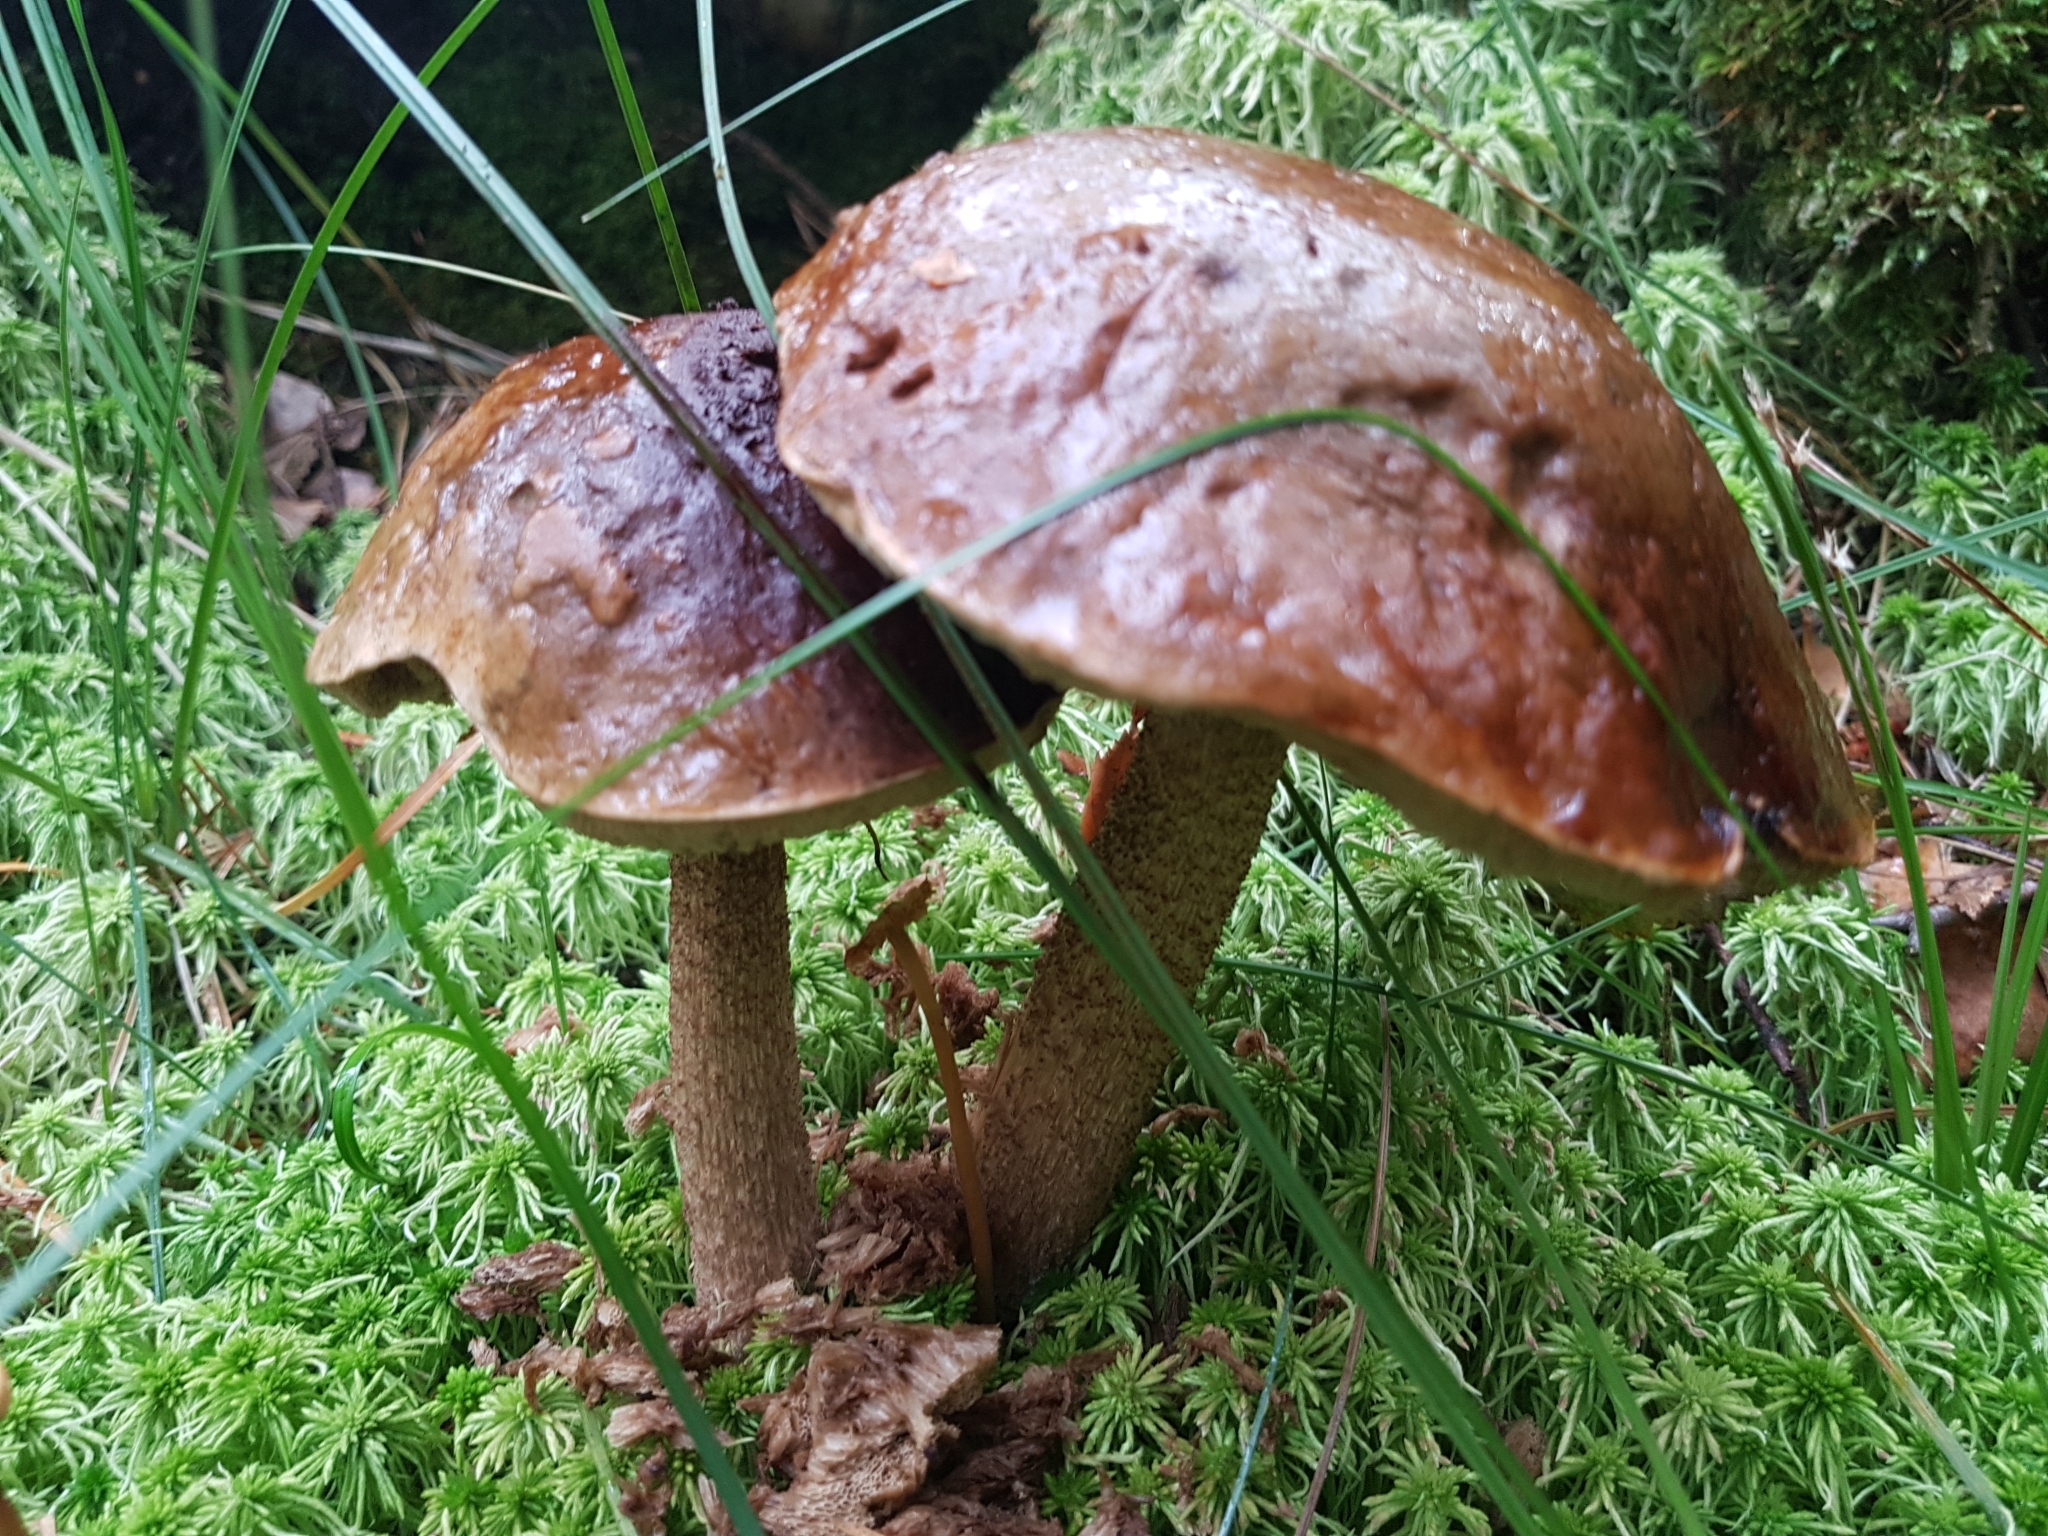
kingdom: Fungi
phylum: Basidiomycota
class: Agaricomycetes
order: Boletales
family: Boletaceae
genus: Leccinum
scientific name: Leccinum scabrum
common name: Blushing bolete
